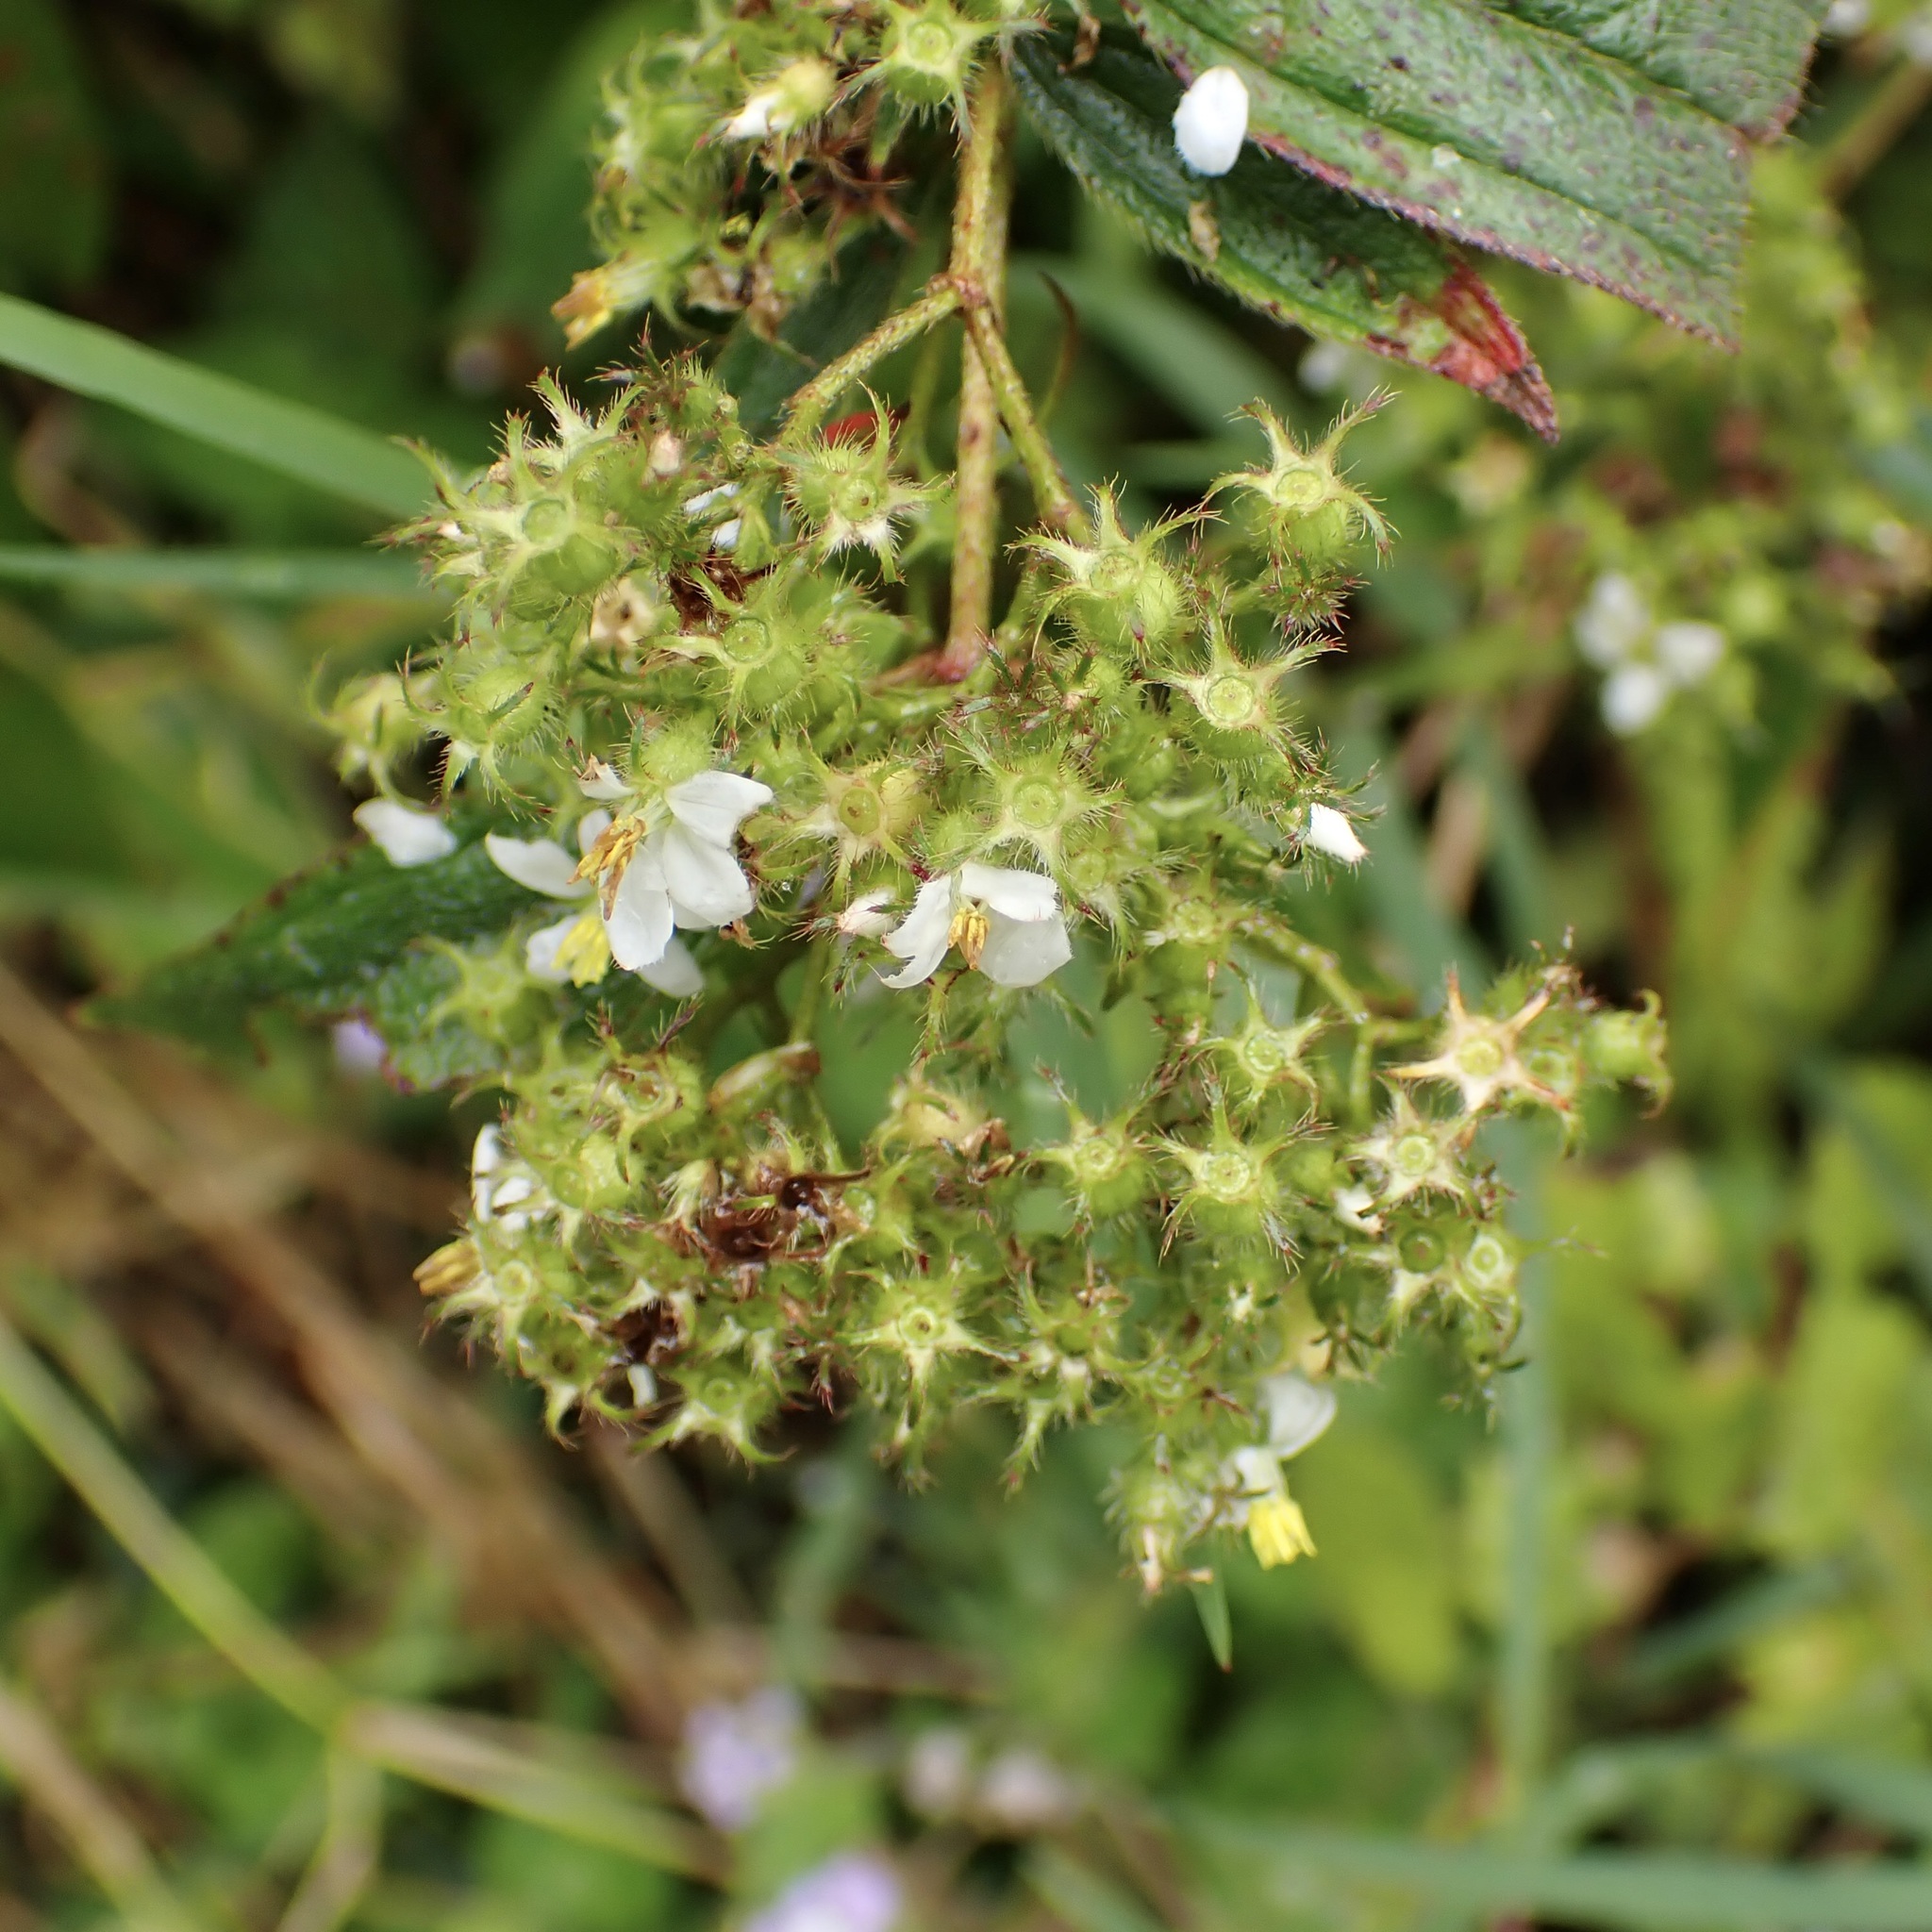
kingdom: Plantae
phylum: Tracheophyta
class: Magnoliopsida
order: Myrtales
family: Melastomataceae
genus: Chaetogastra
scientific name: Chaetogastra longifolia
